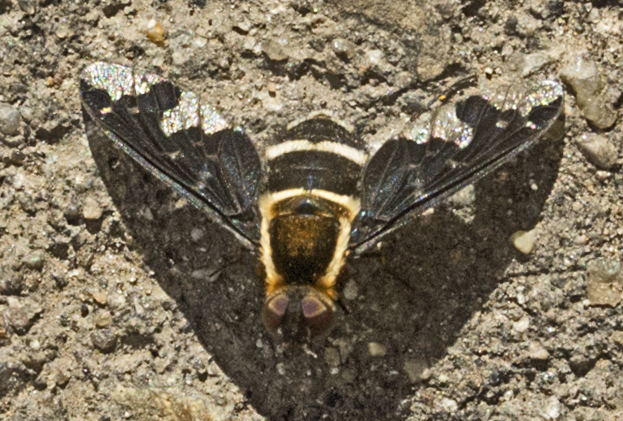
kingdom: Animalia
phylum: Arthropoda
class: Insecta
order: Diptera
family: Bombyliidae
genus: Hemipenthes
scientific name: Hemipenthes maura
